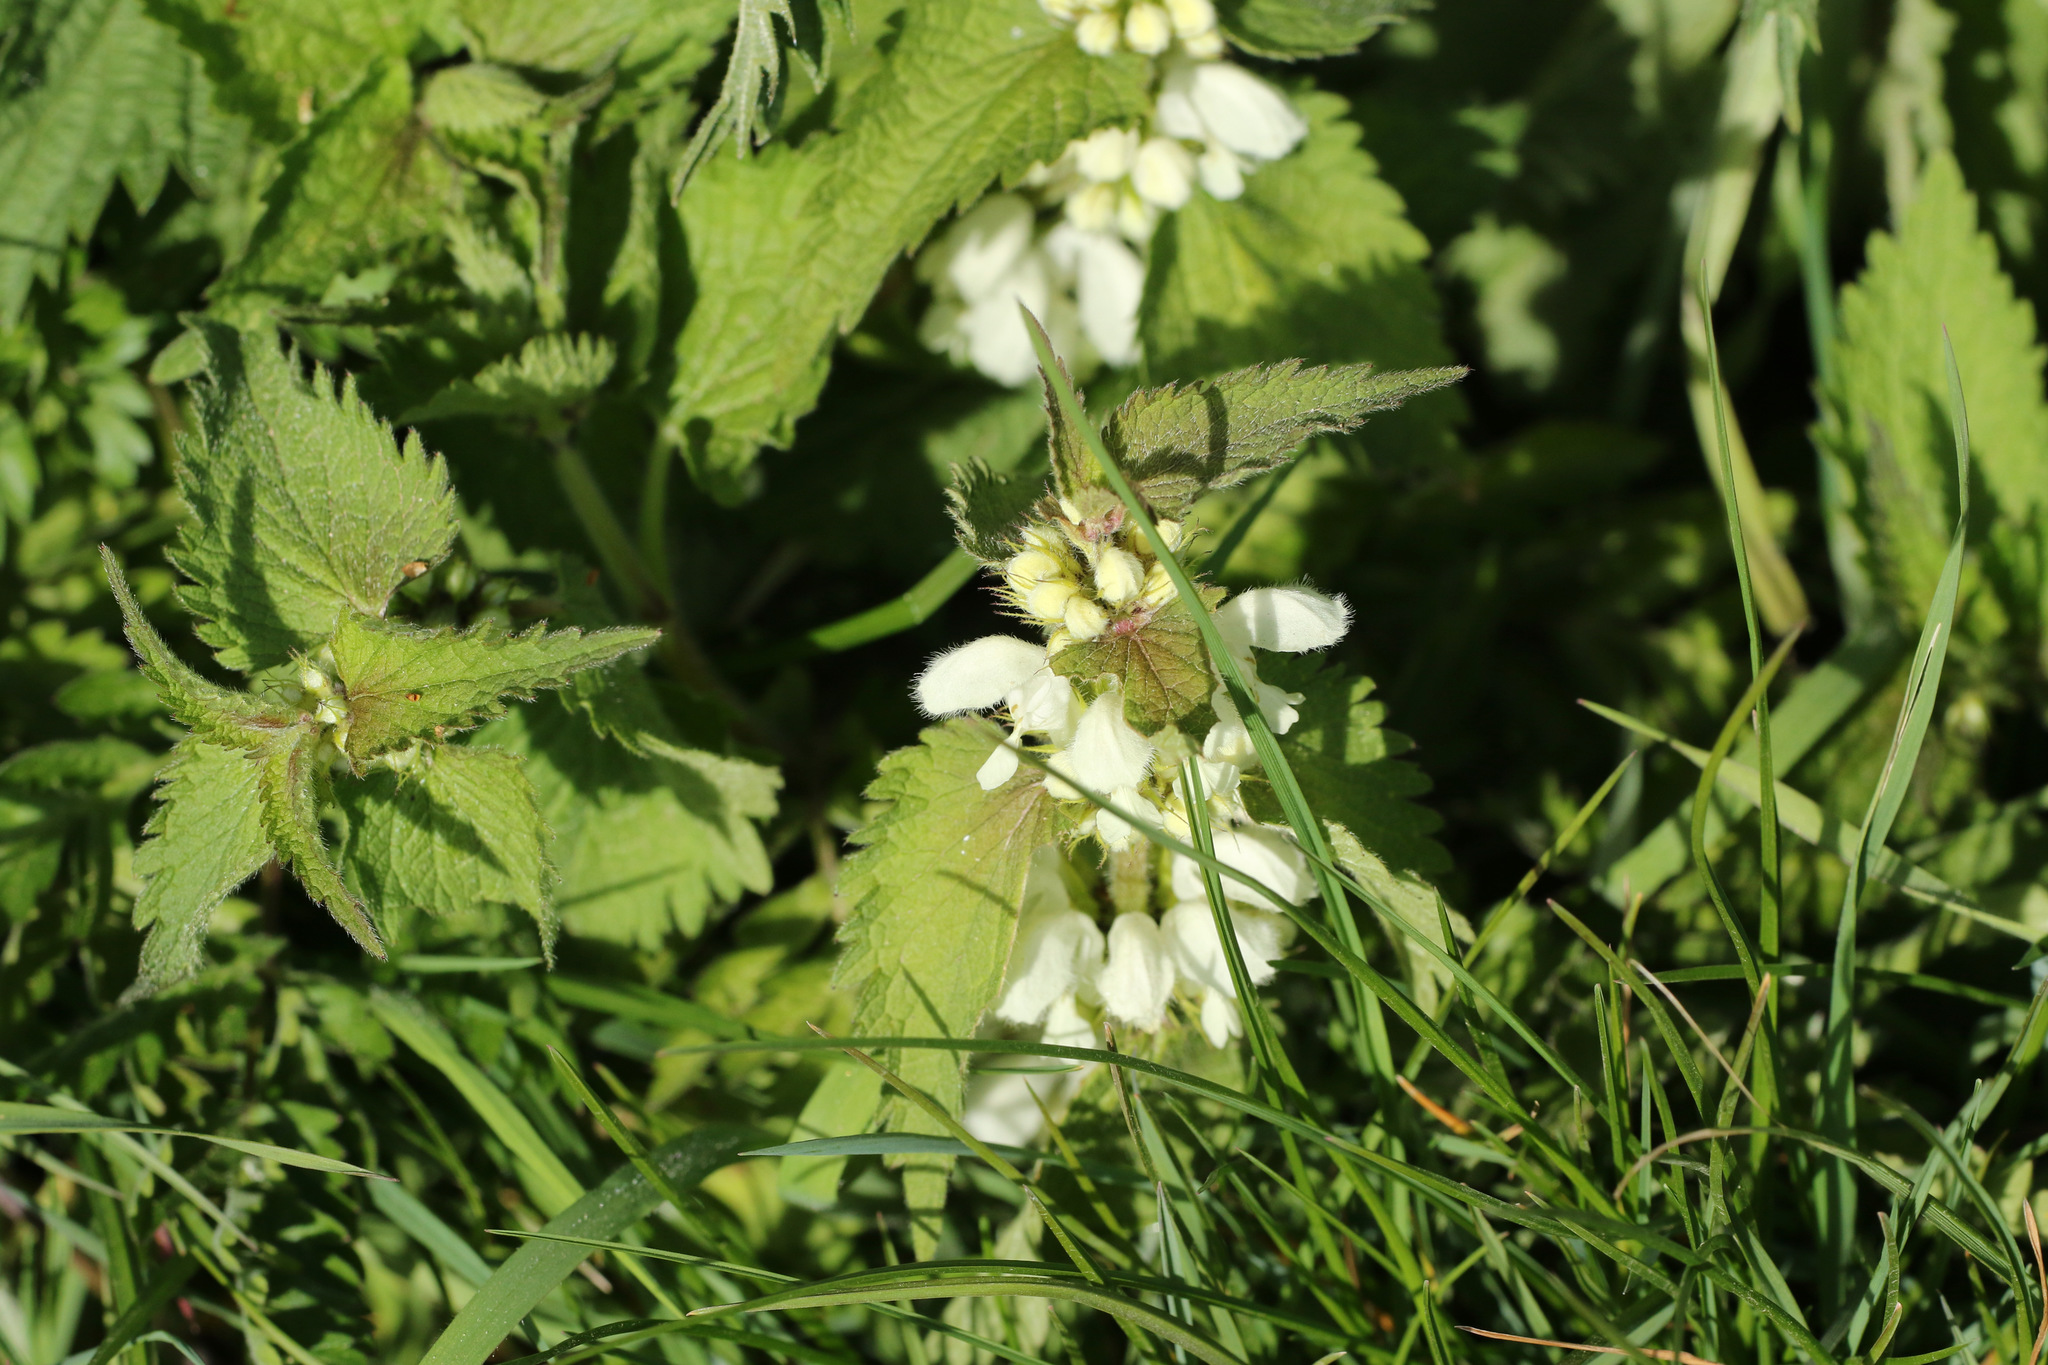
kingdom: Plantae
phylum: Tracheophyta
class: Magnoliopsida
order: Lamiales
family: Lamiaceae
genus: Lamium
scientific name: Lamium album
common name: White dead-nettle
